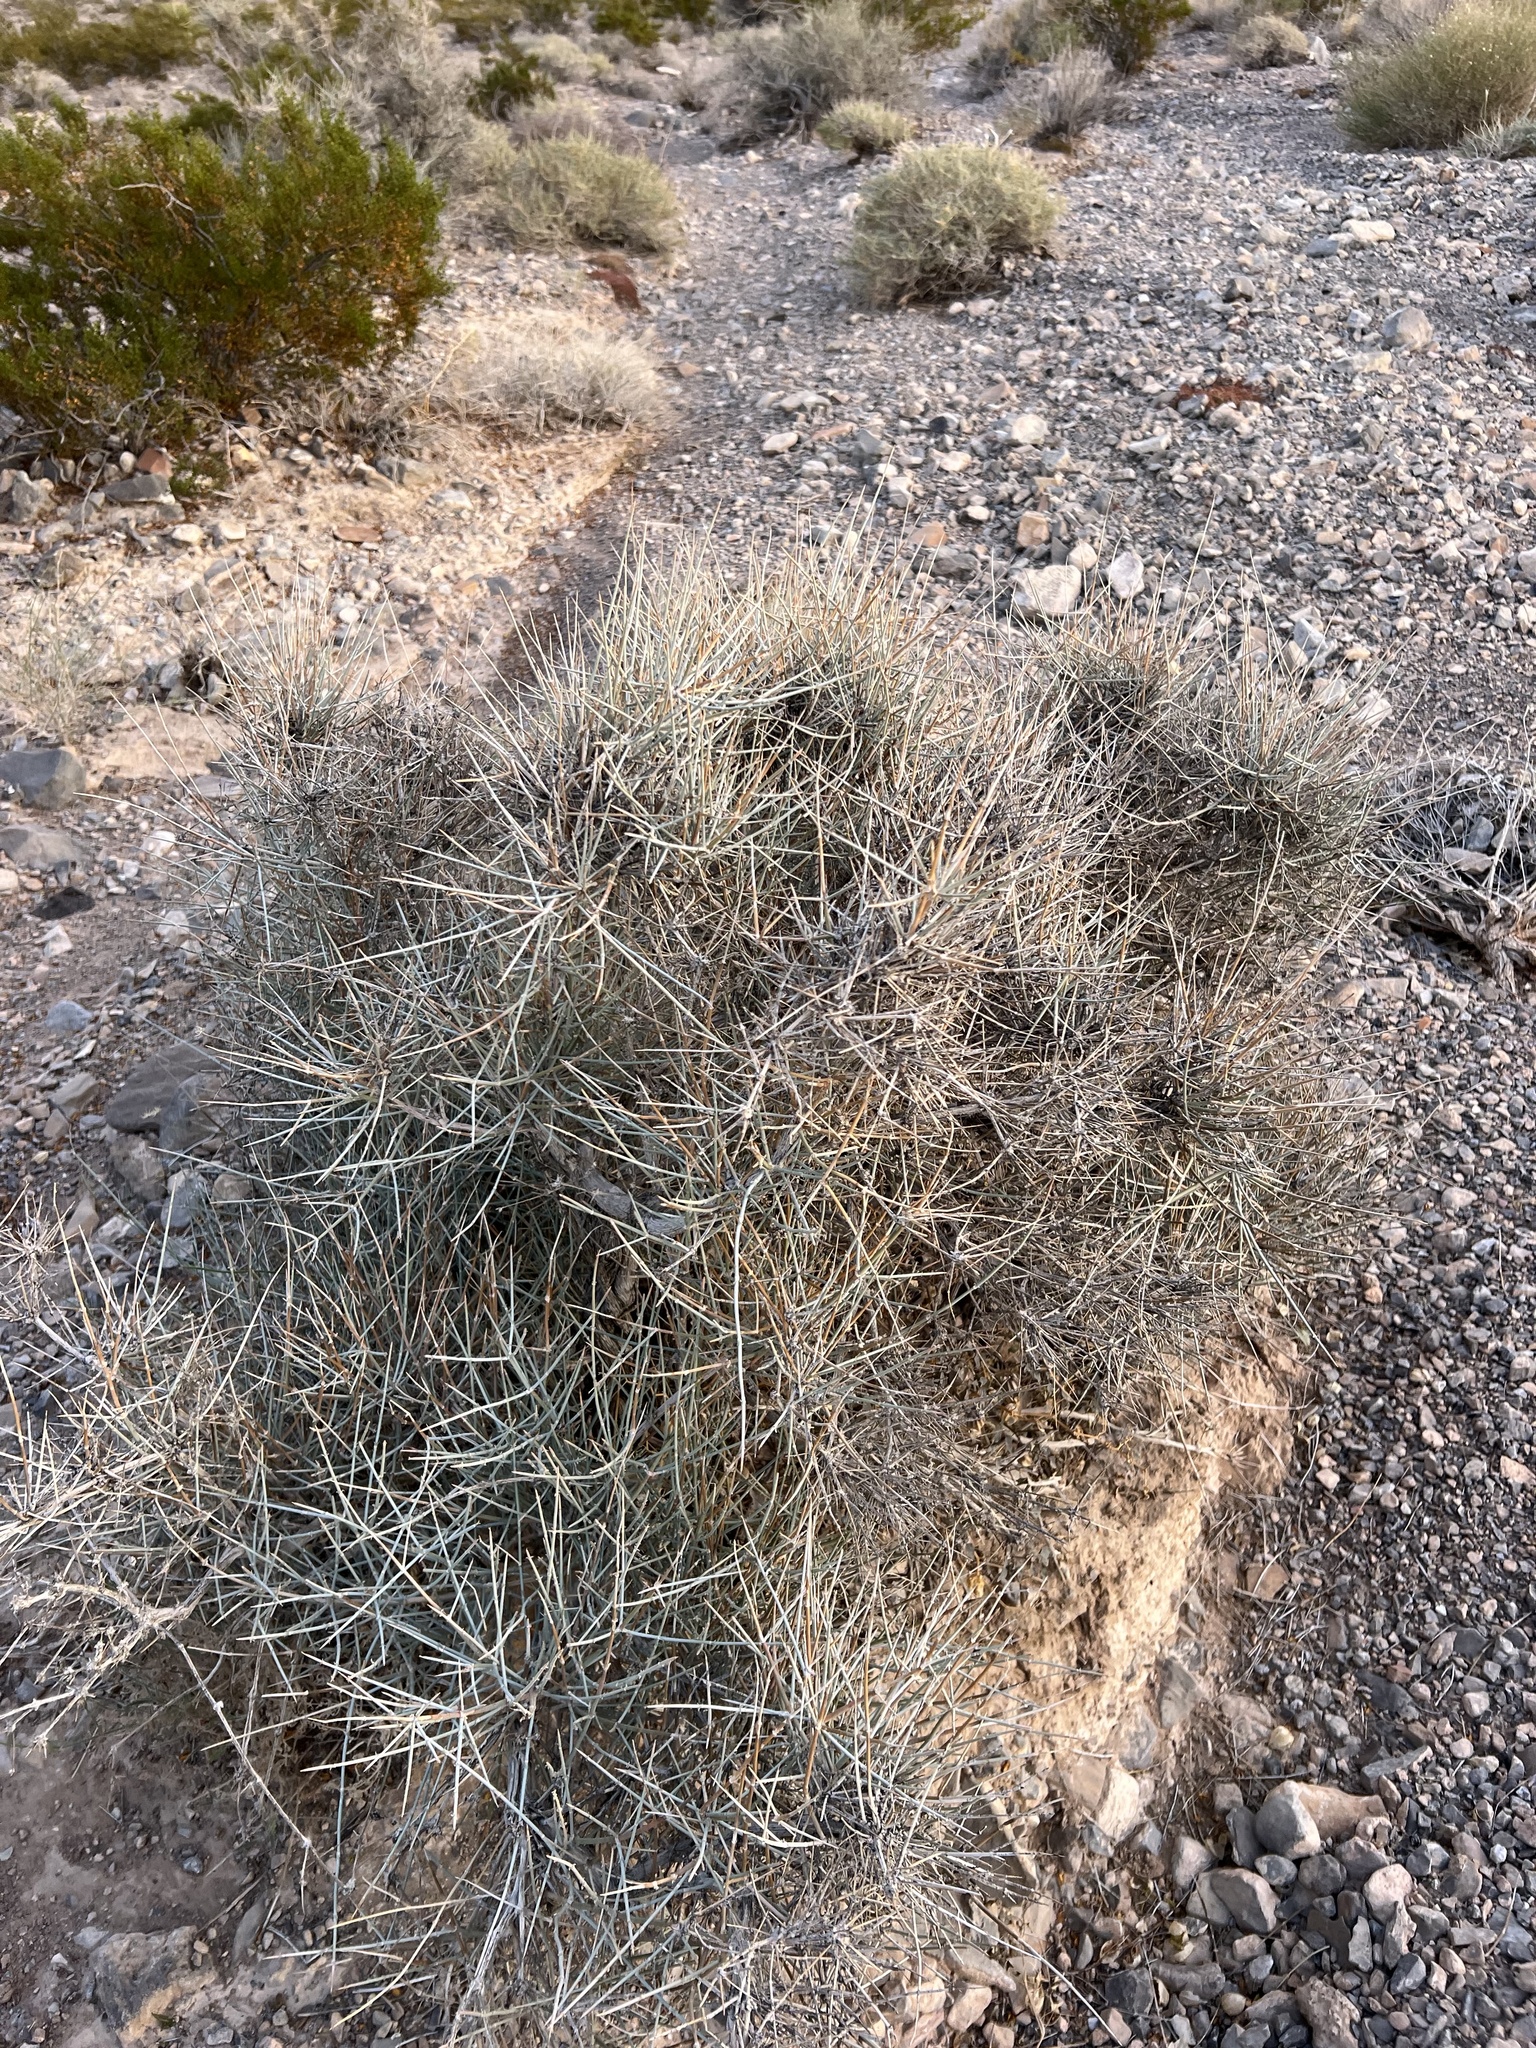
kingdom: Plantae
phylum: Tracheophyta
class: Gnetopsida
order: Ephedrales
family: Ephedraceae
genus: Ephedra
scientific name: Ephedra nevadensis
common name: Gray ephedra
